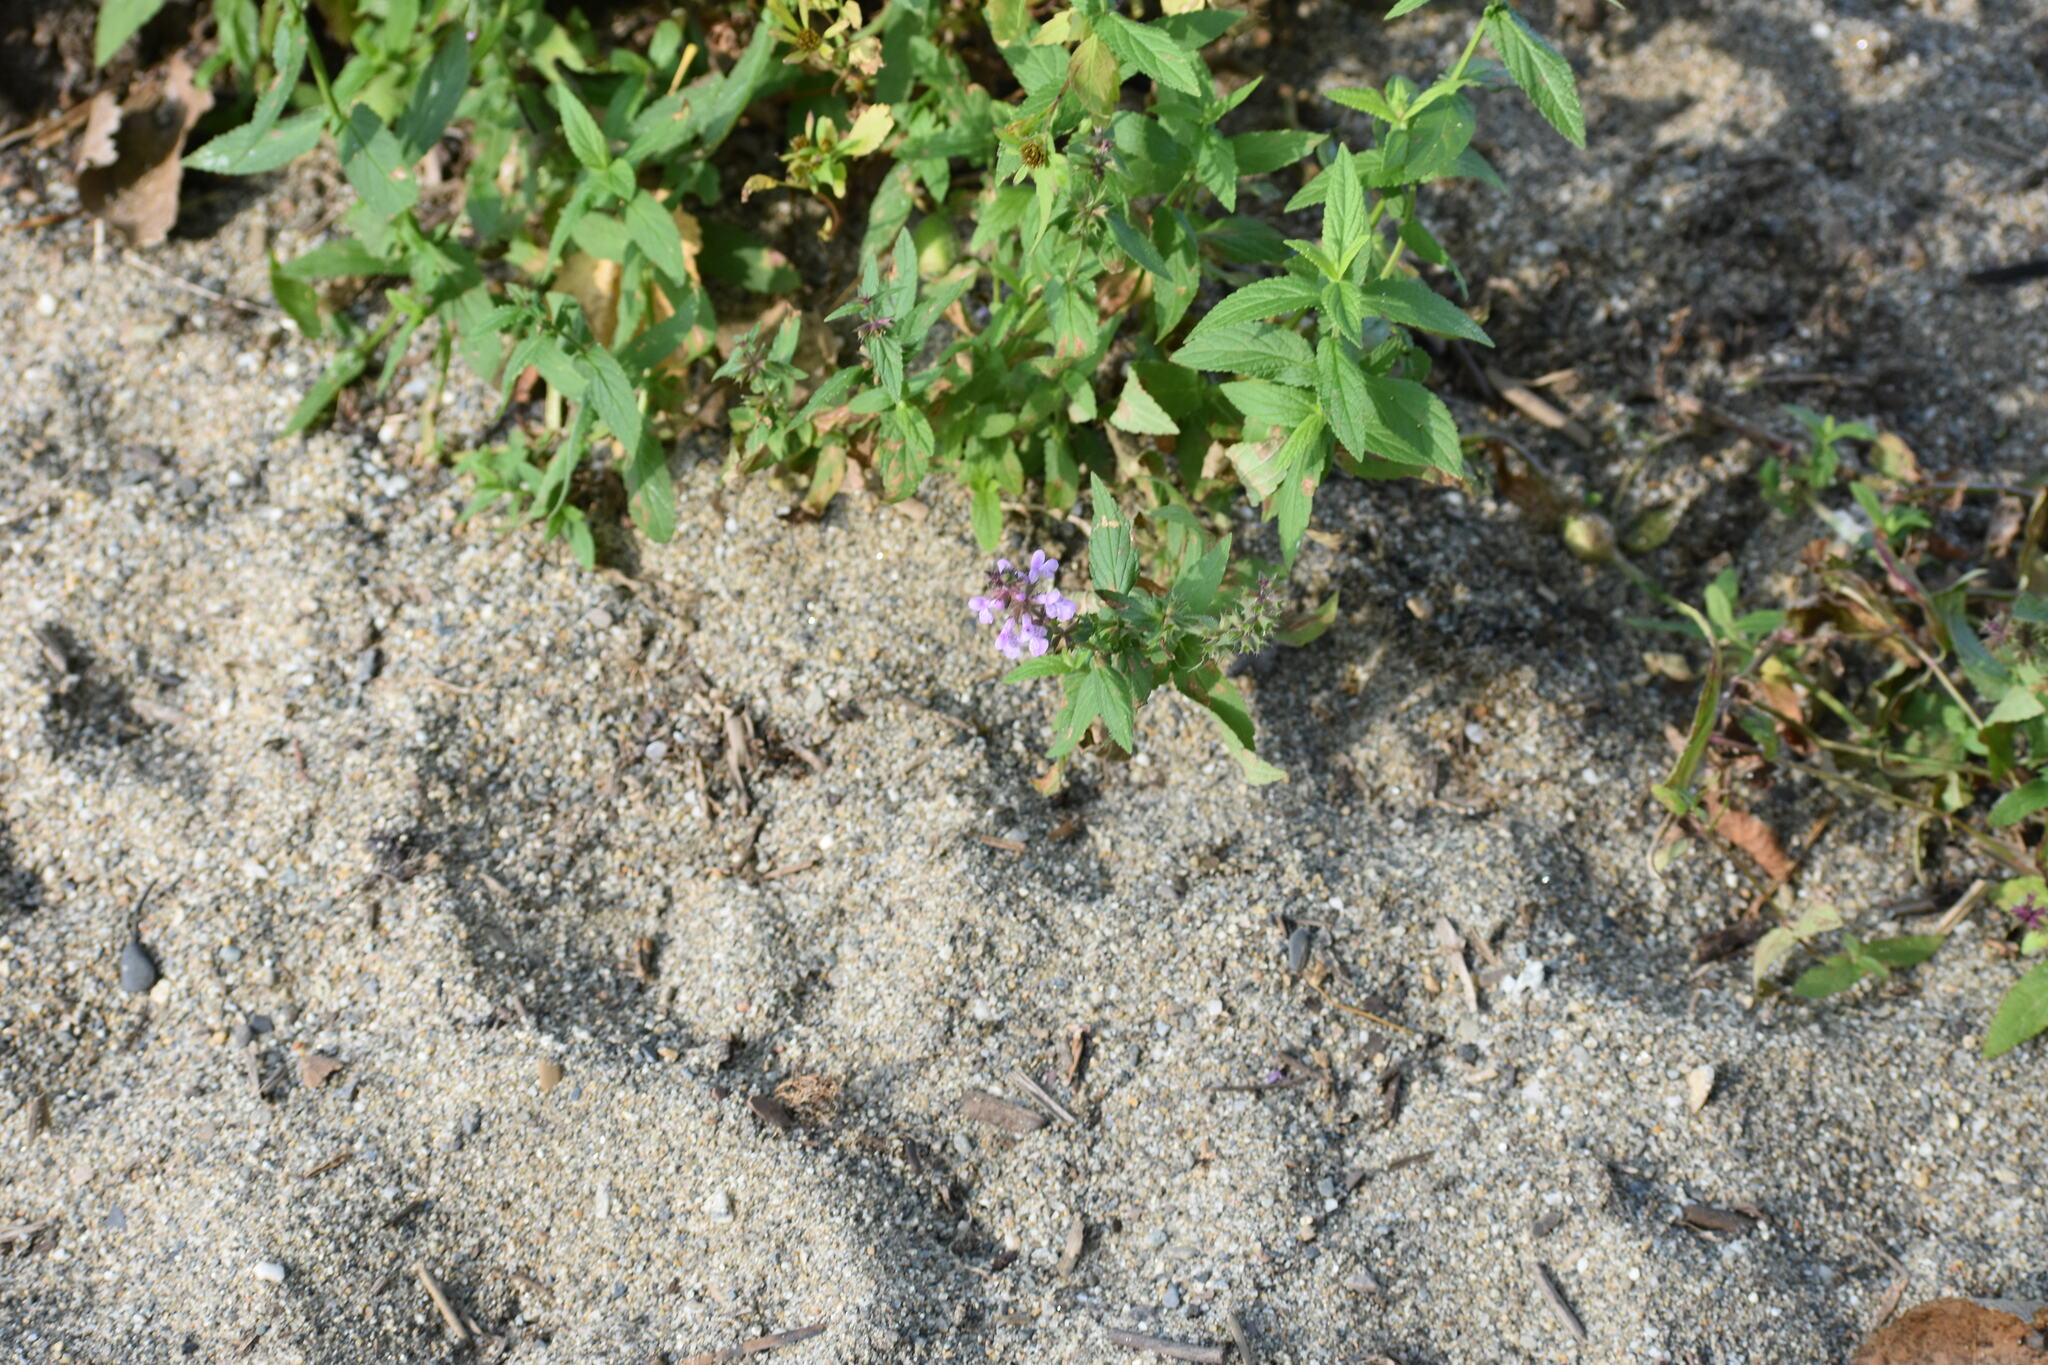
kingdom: Plantae
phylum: Tracheophyta
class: Magnoliopsida
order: Lamiales
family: Lamiaceae
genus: Mentha
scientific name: Mentha canadensis
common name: American corn mint
